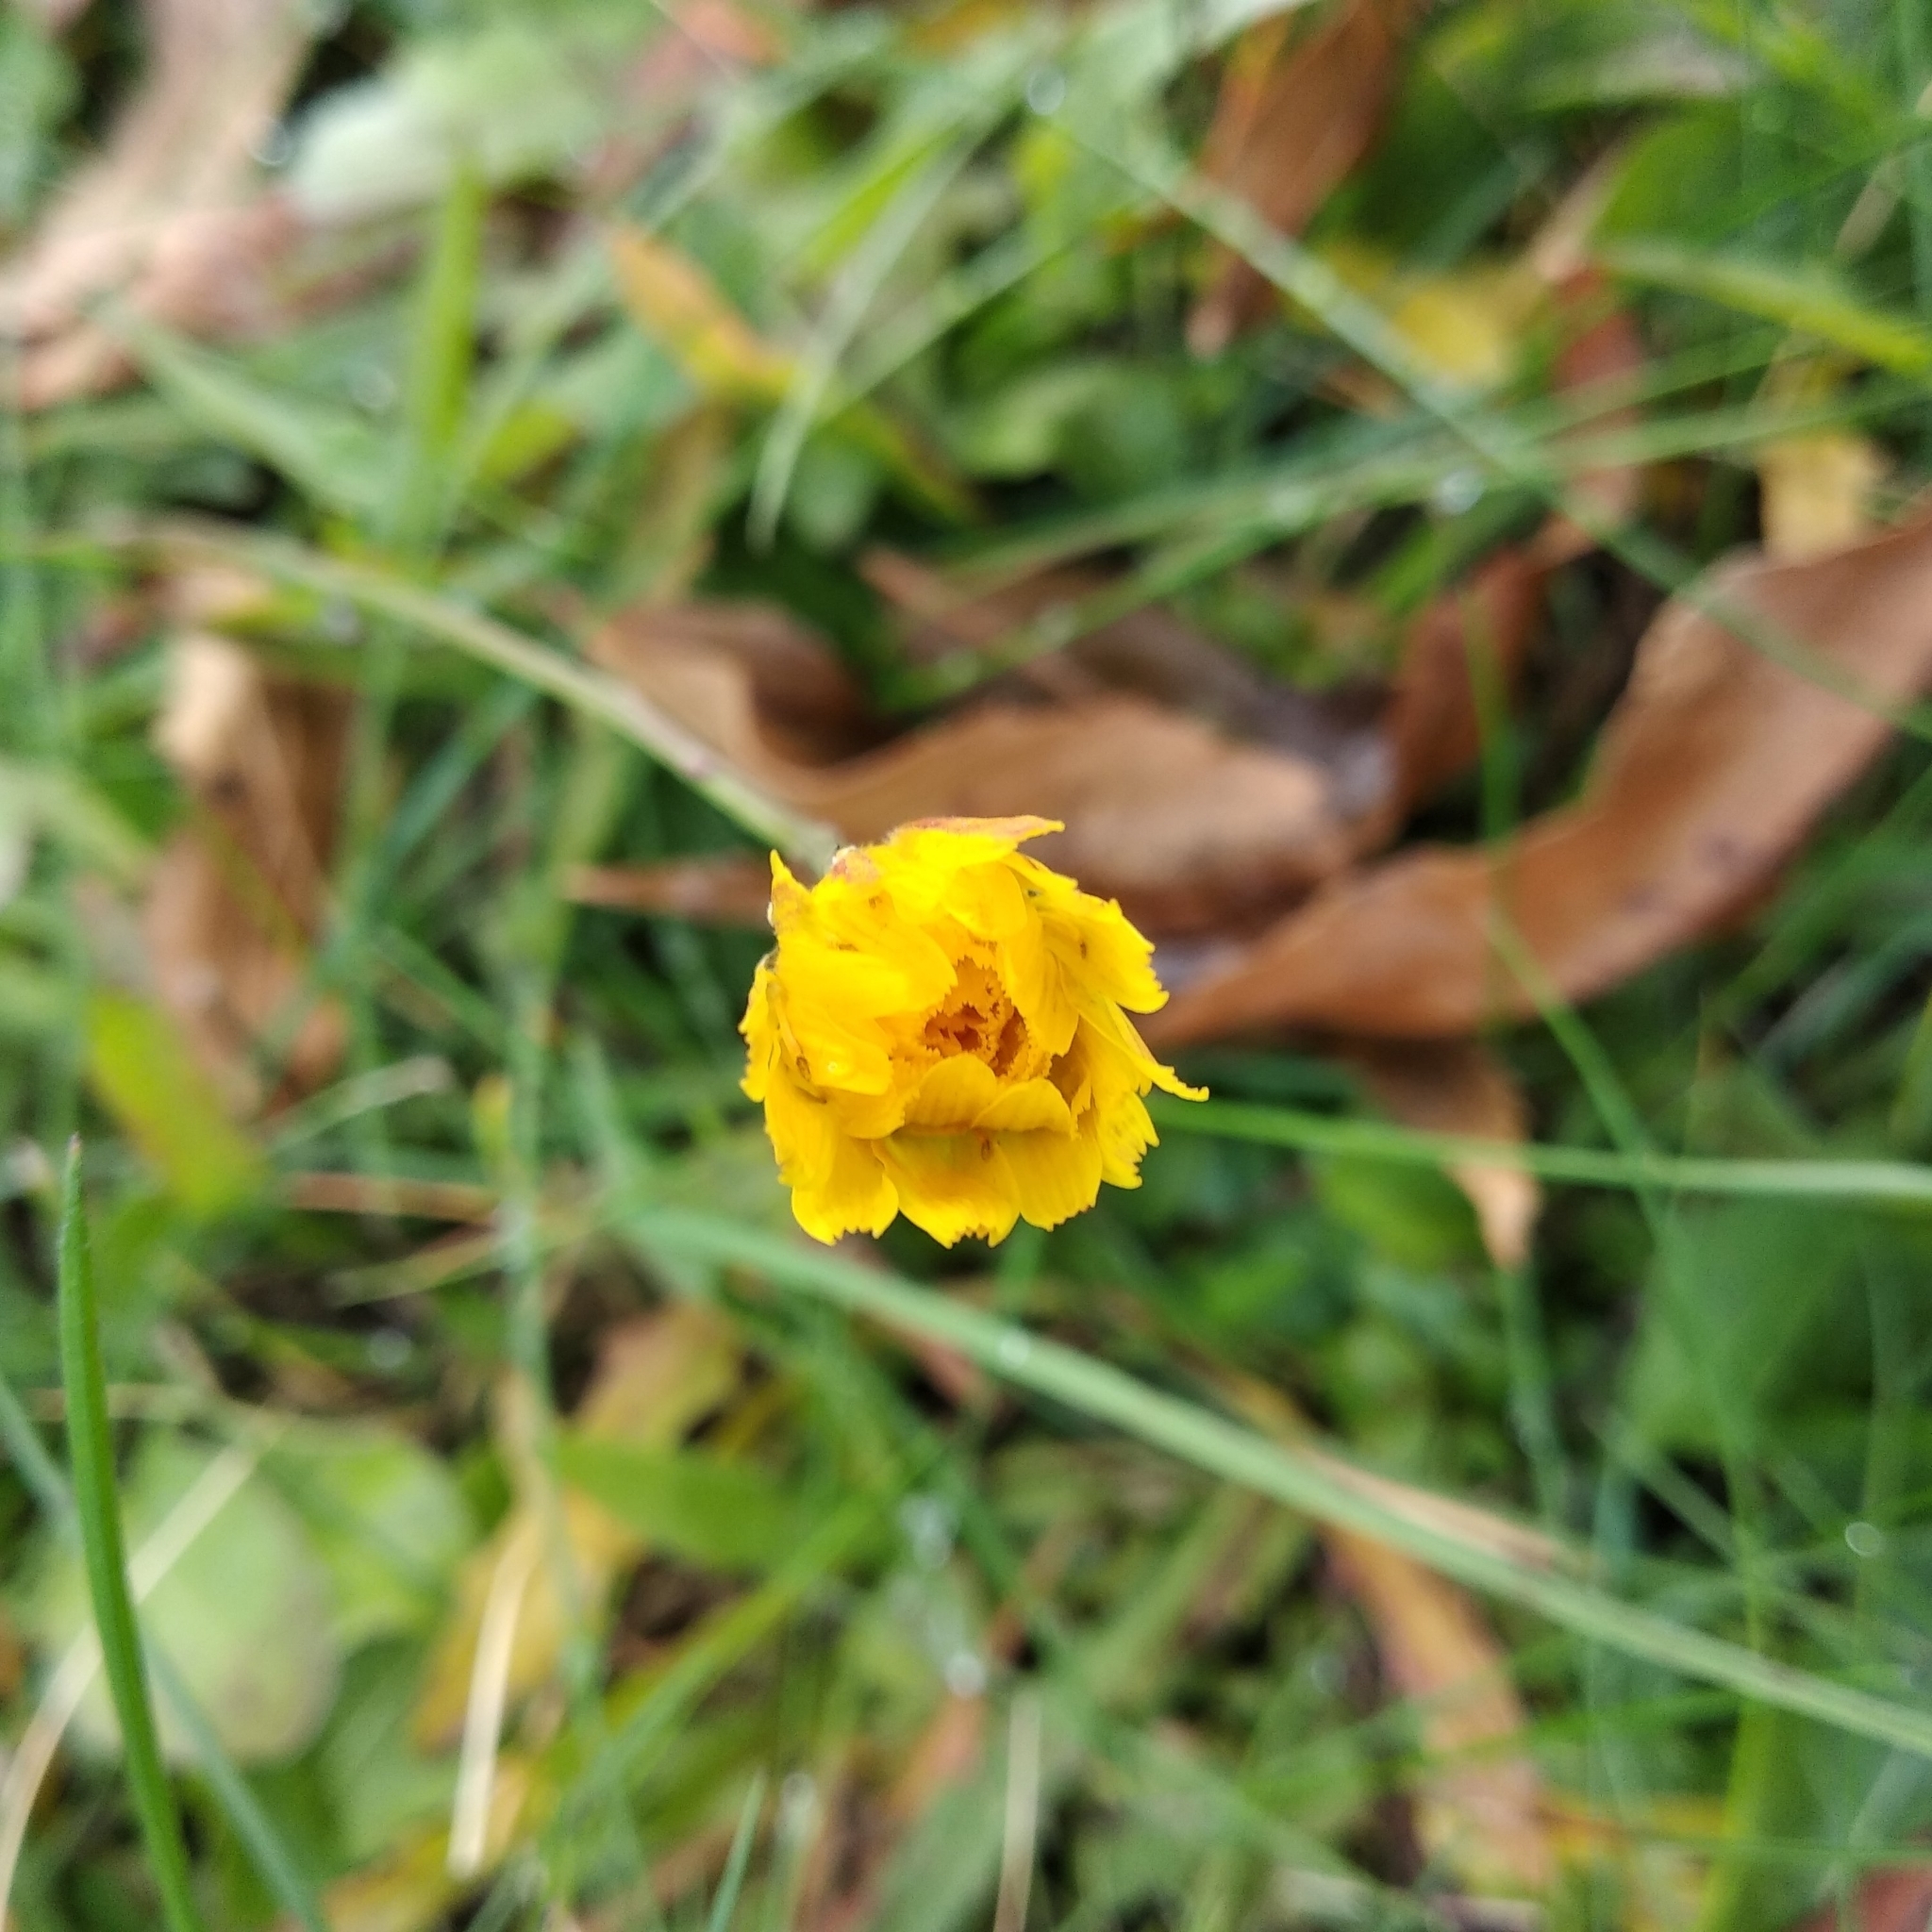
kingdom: Plantae
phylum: Tracheophyta
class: Magnoliopsida
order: Asterales
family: Asteraceae
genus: Scorzoneroides
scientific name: Scorzoneroides autumnalis
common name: Autumn hawkbit
